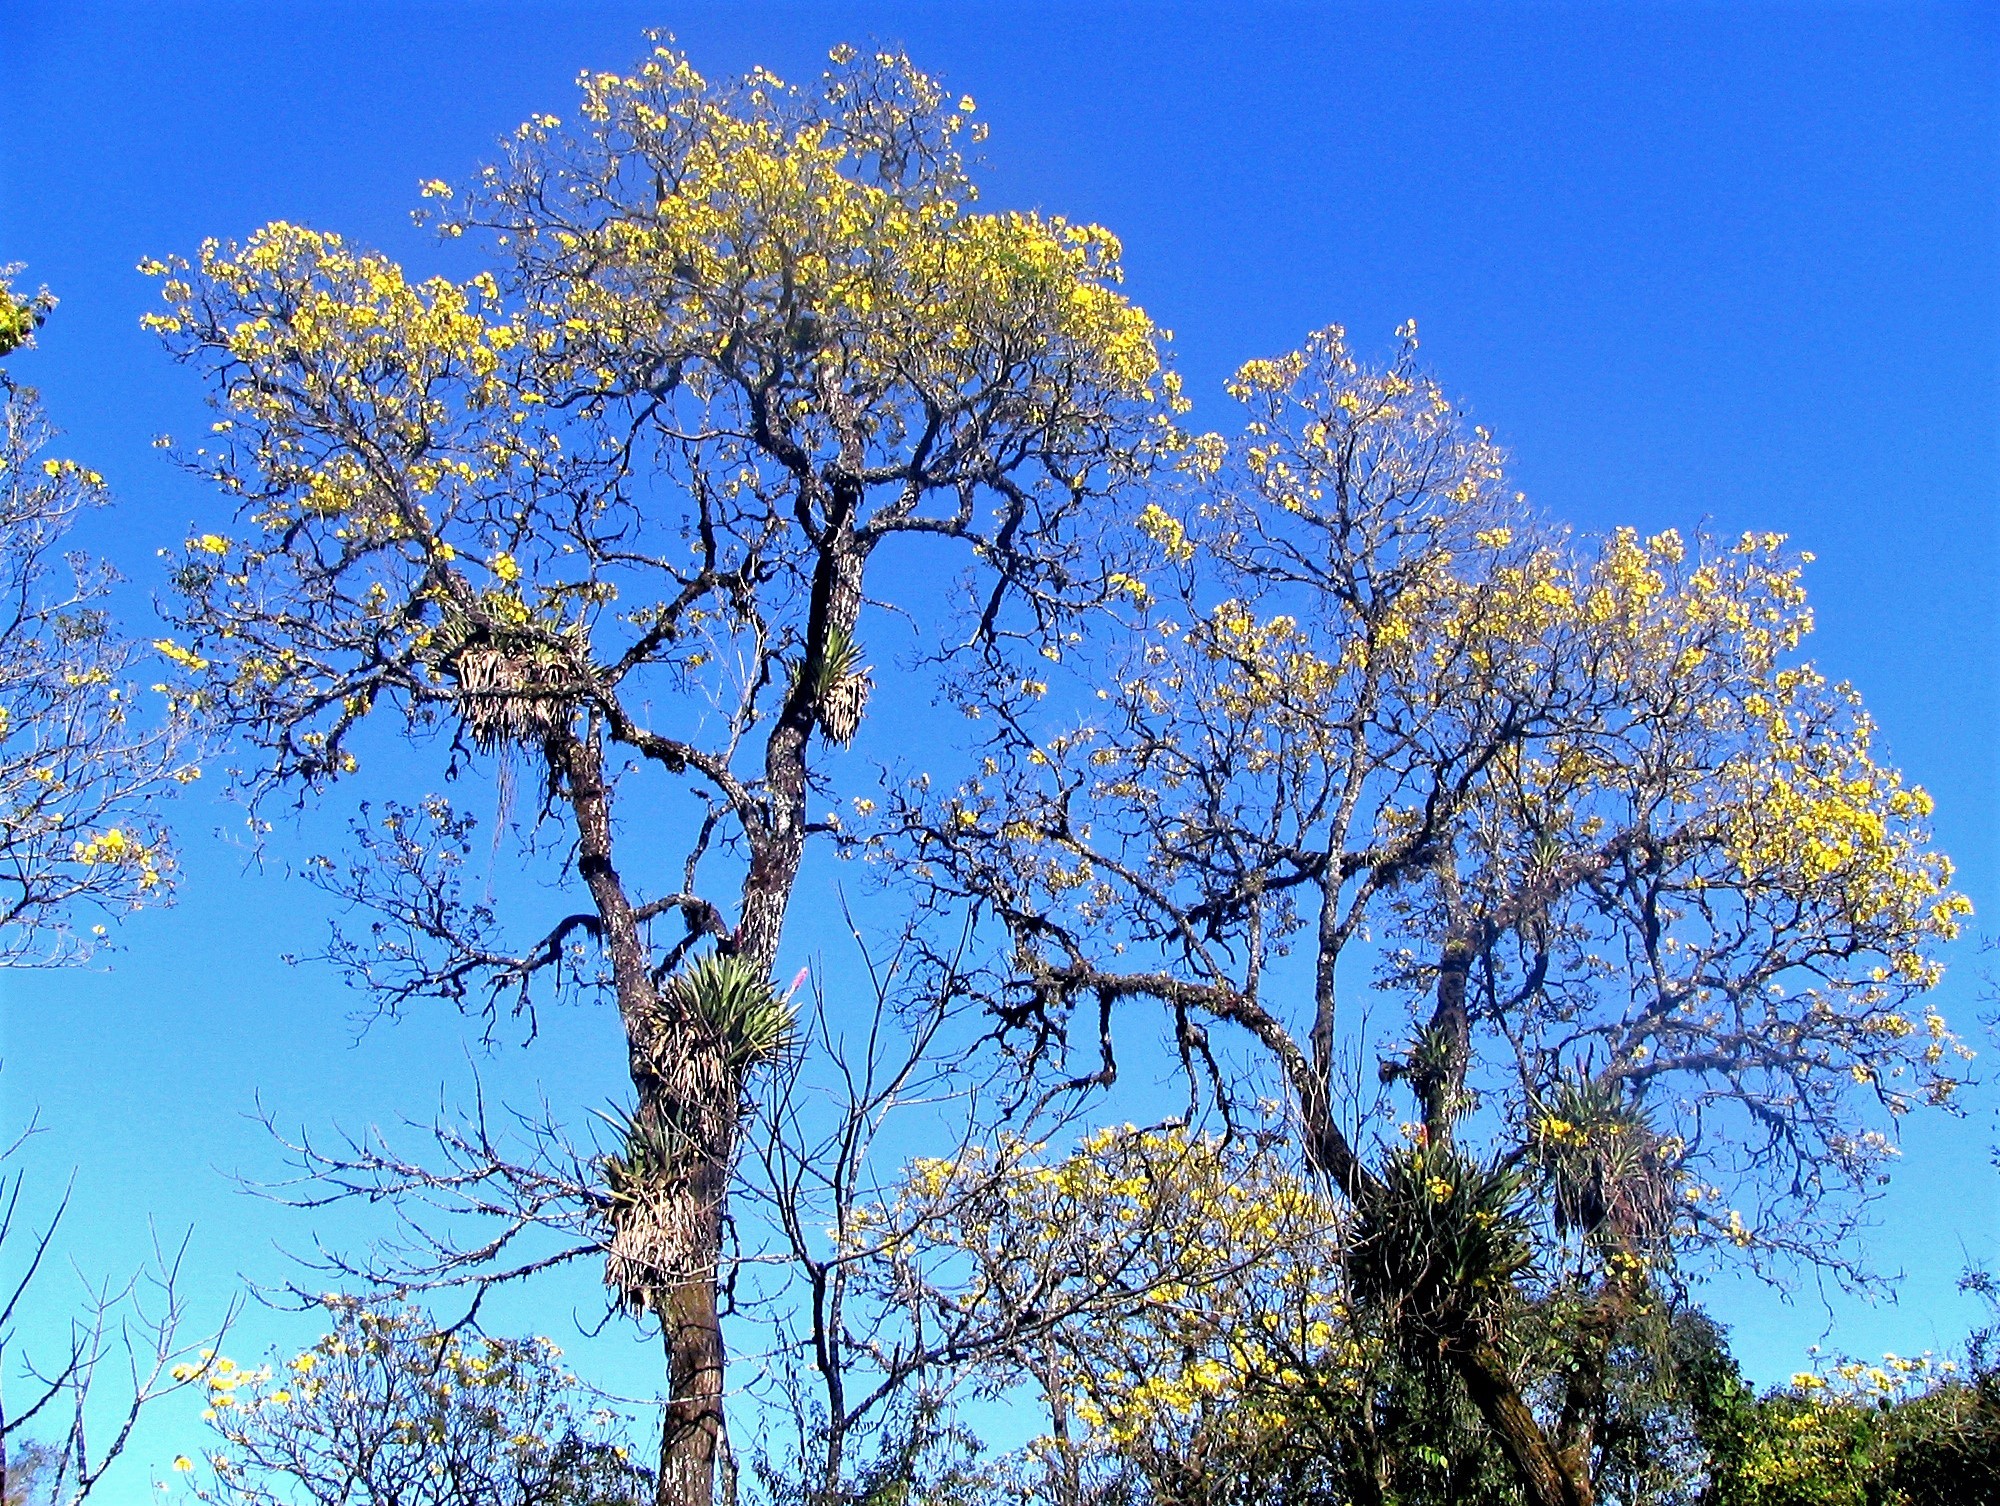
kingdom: Plantae
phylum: Tracheophyta
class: Magnoliopsida
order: Lamiales
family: Bignoniaceae
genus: Handroanthus
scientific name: Handroanthus lapacho
